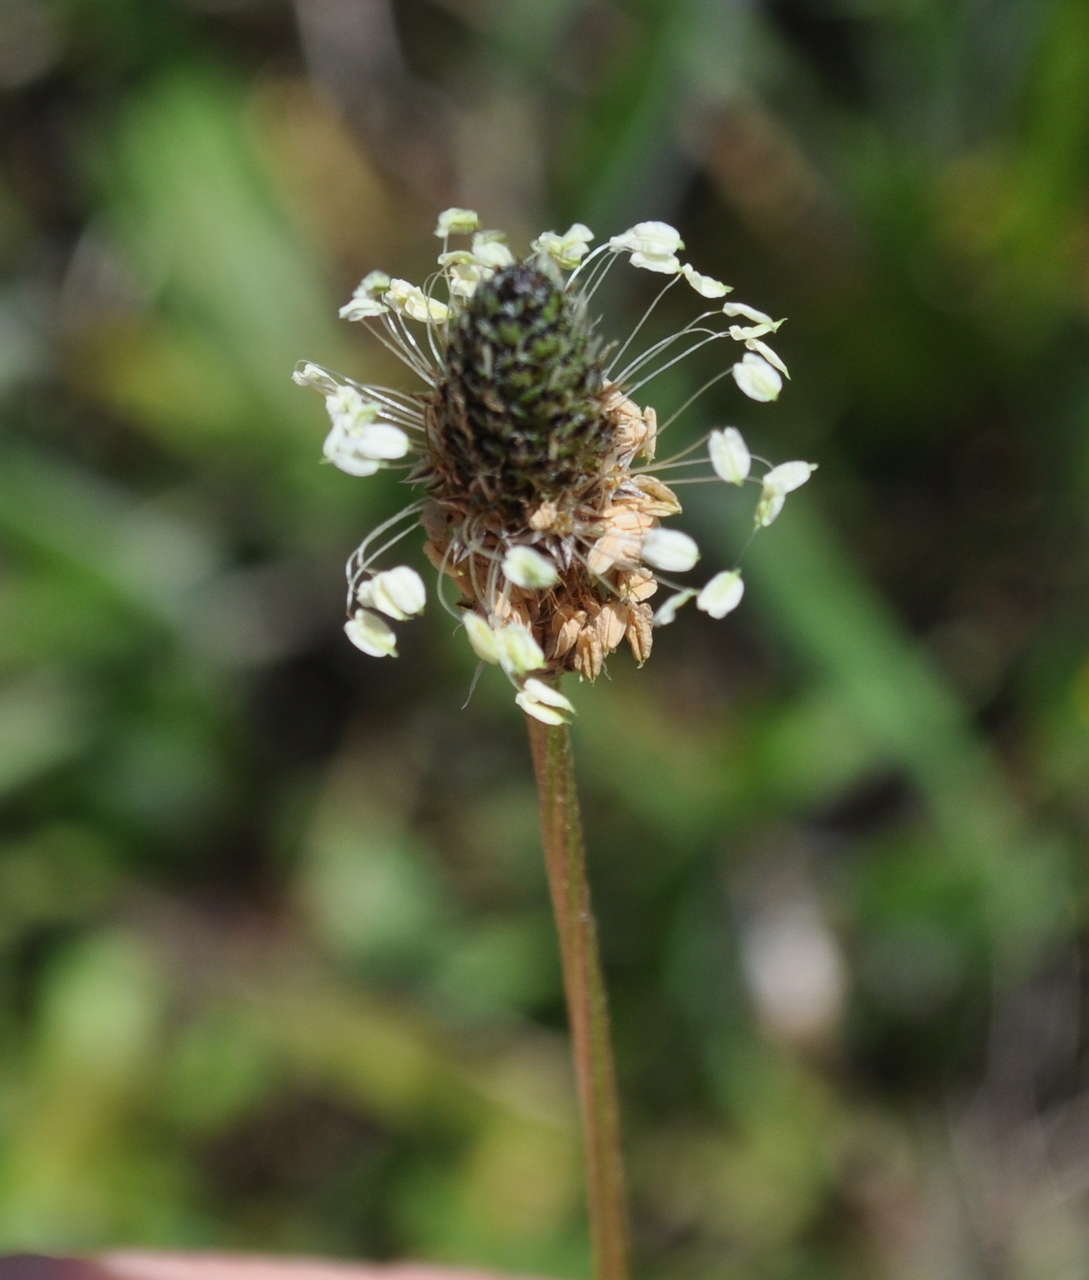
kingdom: Plantae
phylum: Tracheophyta
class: Magnoliopsida
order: Lamiales
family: Plantaginaceae
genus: Plantago
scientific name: Plantago lanceolata
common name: Ribwort plantain
